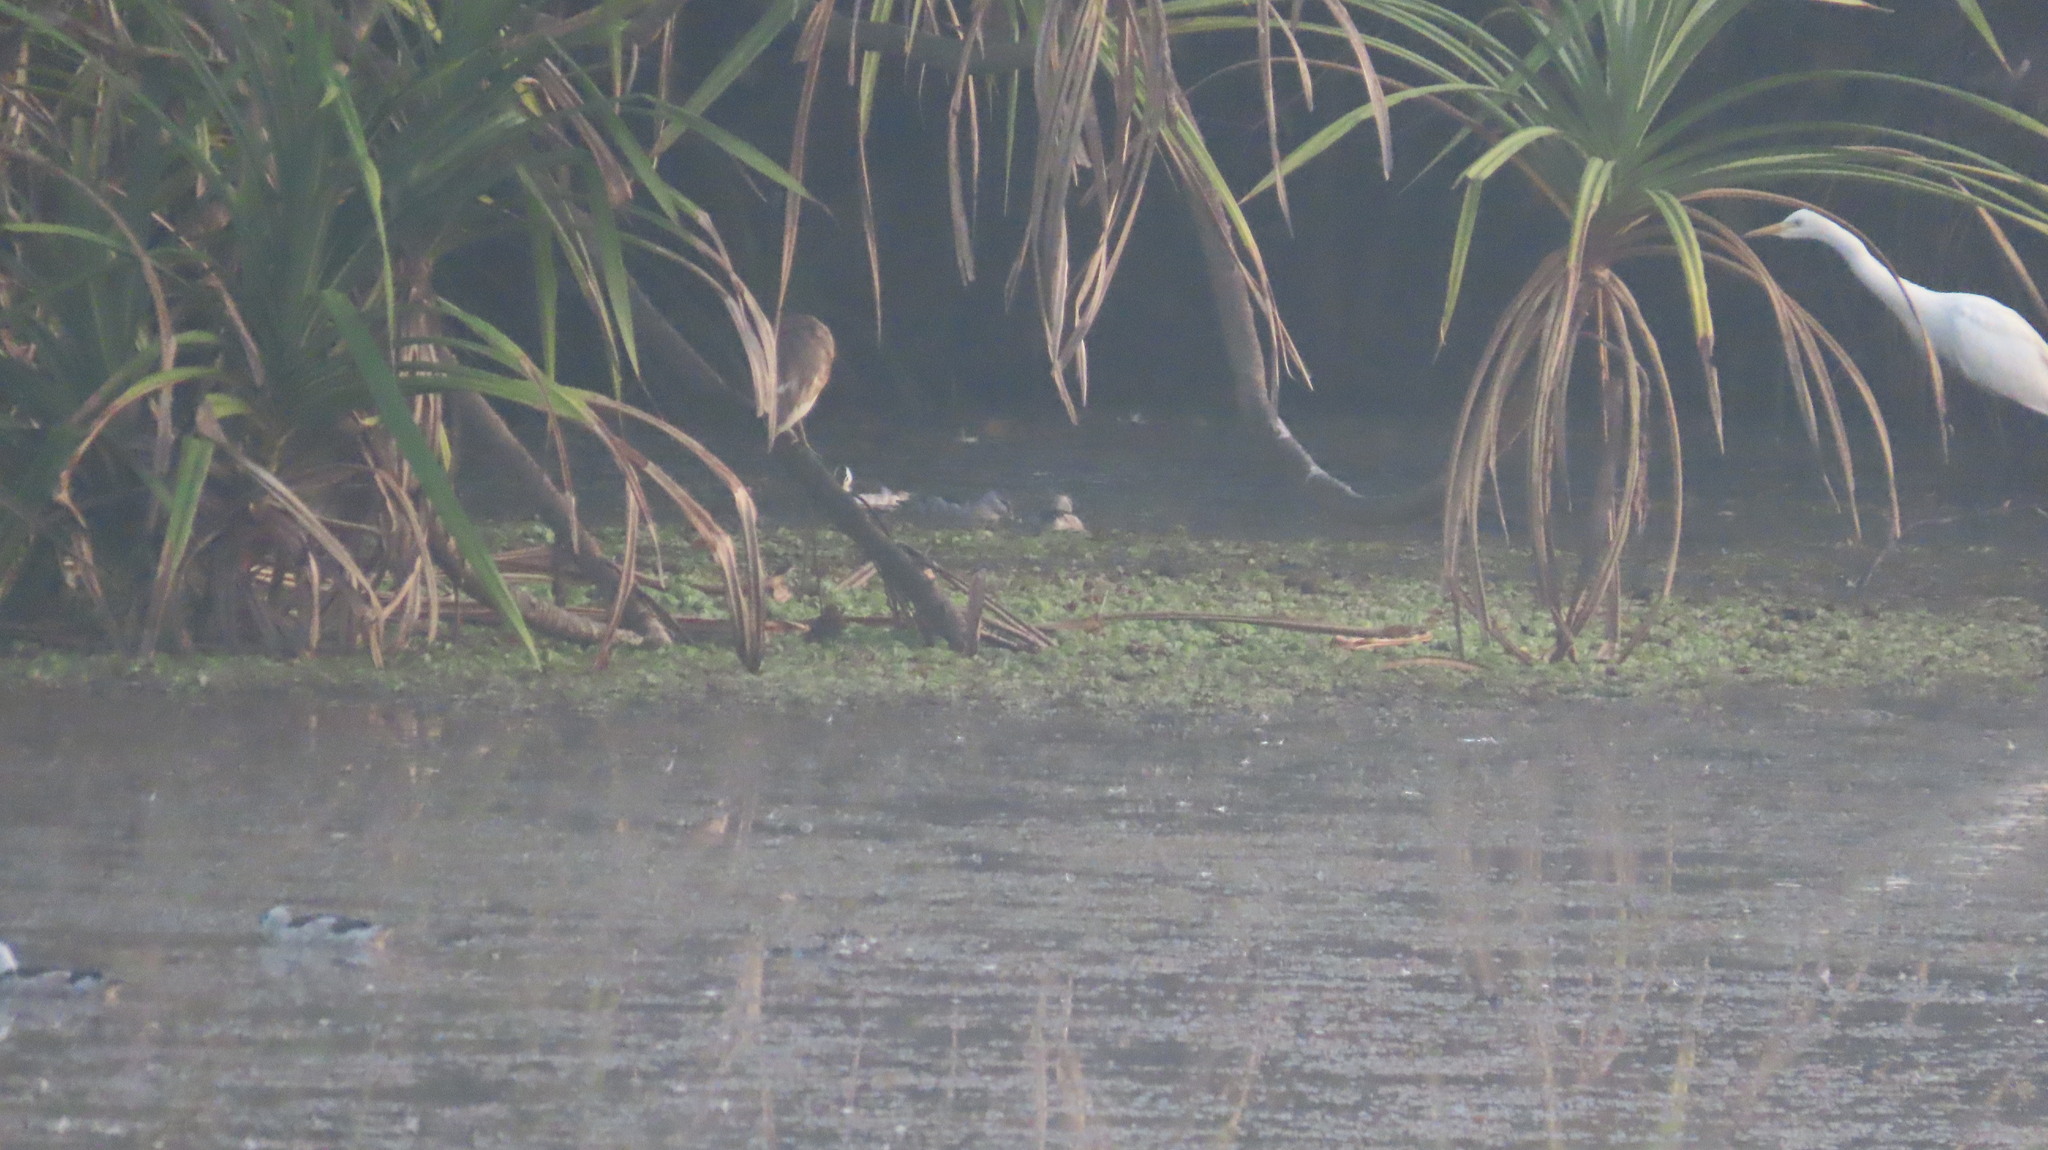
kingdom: Animalia
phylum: Chordata
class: Aves
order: Pelecaniformes
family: Ardeidae
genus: Ardeola
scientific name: Ardeola grayii
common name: Indian pond heron
